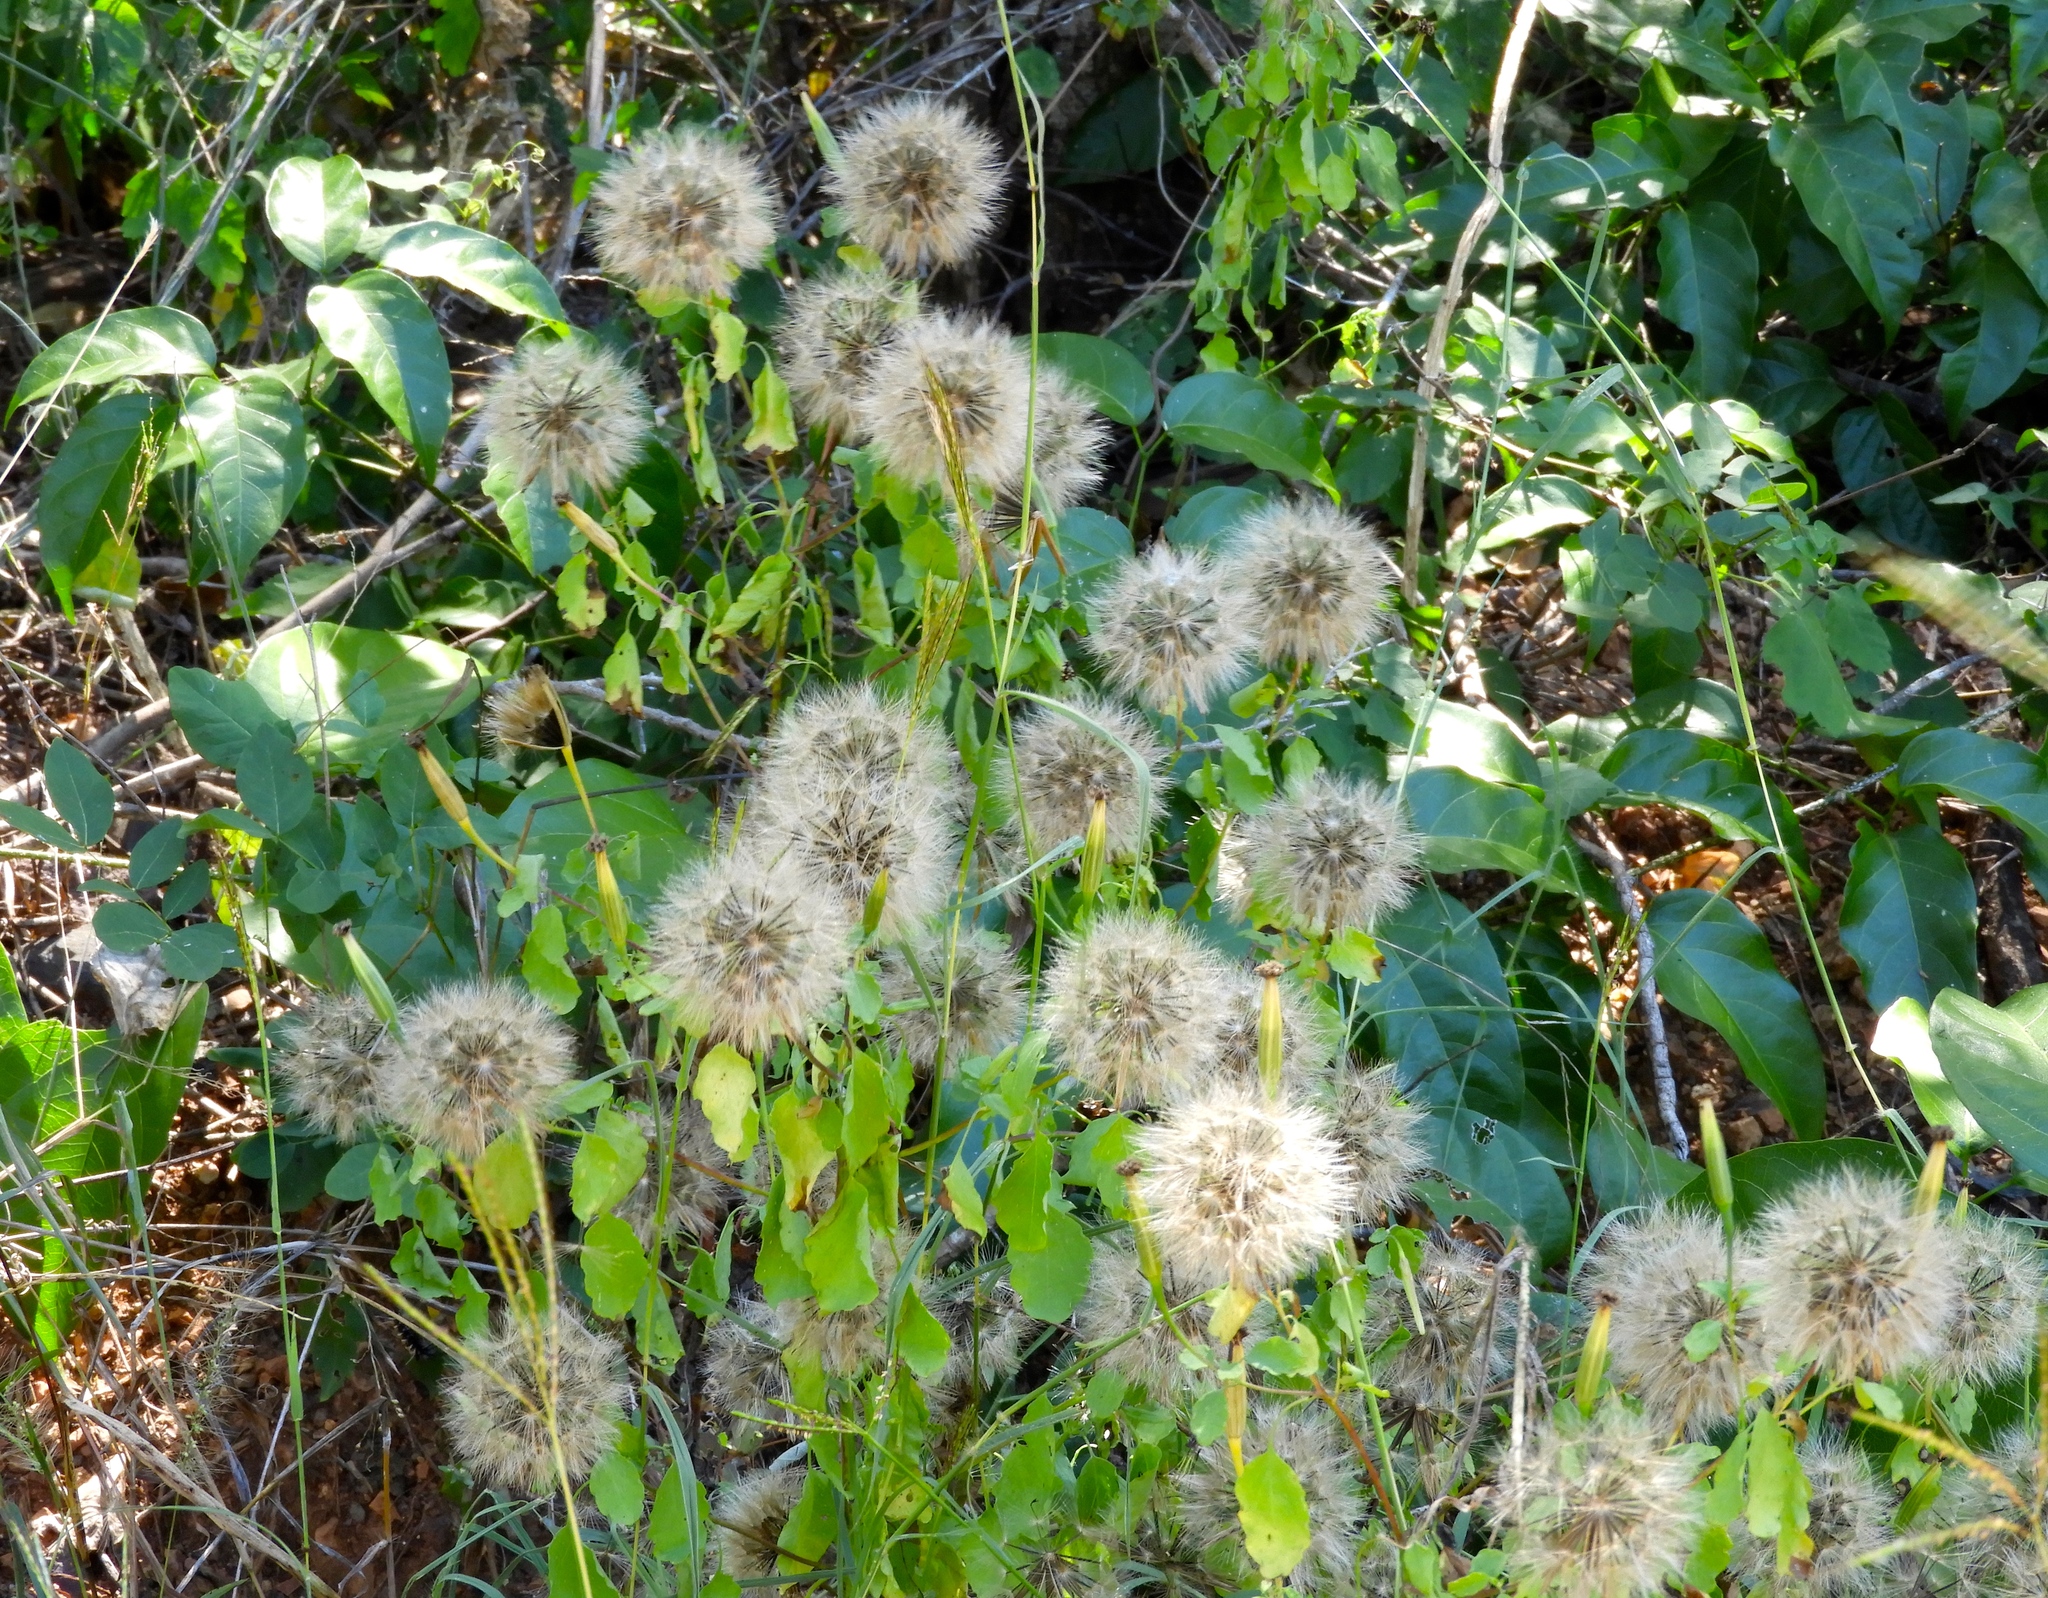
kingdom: Plantae
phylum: Tracheophyta
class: Magnoliopsida
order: Asterales
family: Asteraceae
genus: Porophyllum
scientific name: Porophyllum ruderale
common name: Yerba porosa
